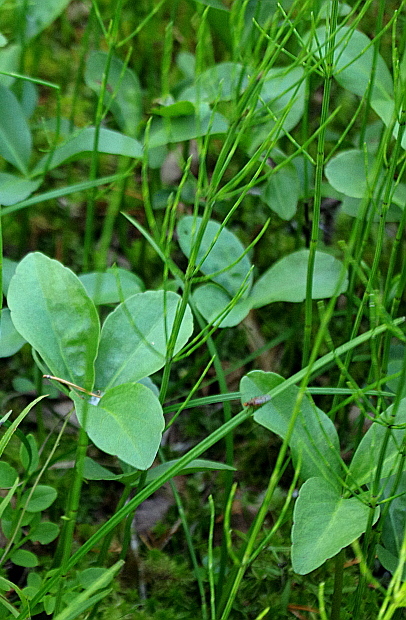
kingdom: Plantae
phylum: Tracheophyta
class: Magnoliopsida
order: Asterales
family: Menyanthaceae
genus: Menyanthes
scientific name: Menyanthes trifoliata
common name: Bogbean
